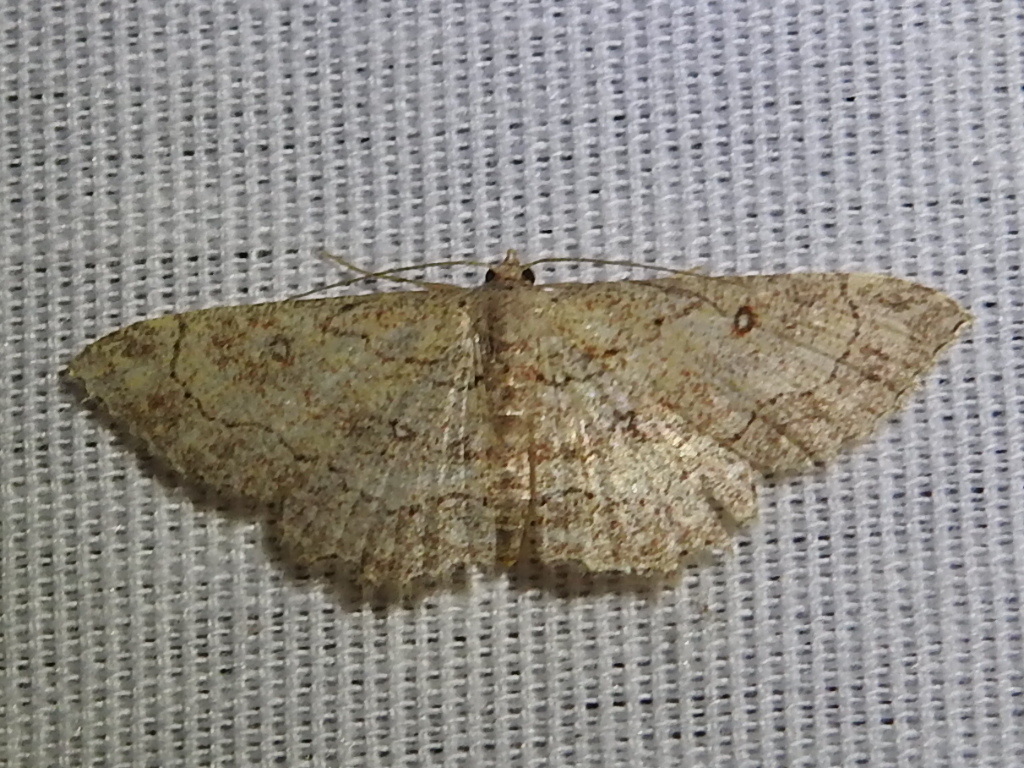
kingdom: Animalia
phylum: Arthropoda
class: Insecta
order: Lepidoptera
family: Geometridae
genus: Cyclophora
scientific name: Cyclophora nanaria
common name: Cankerworm
